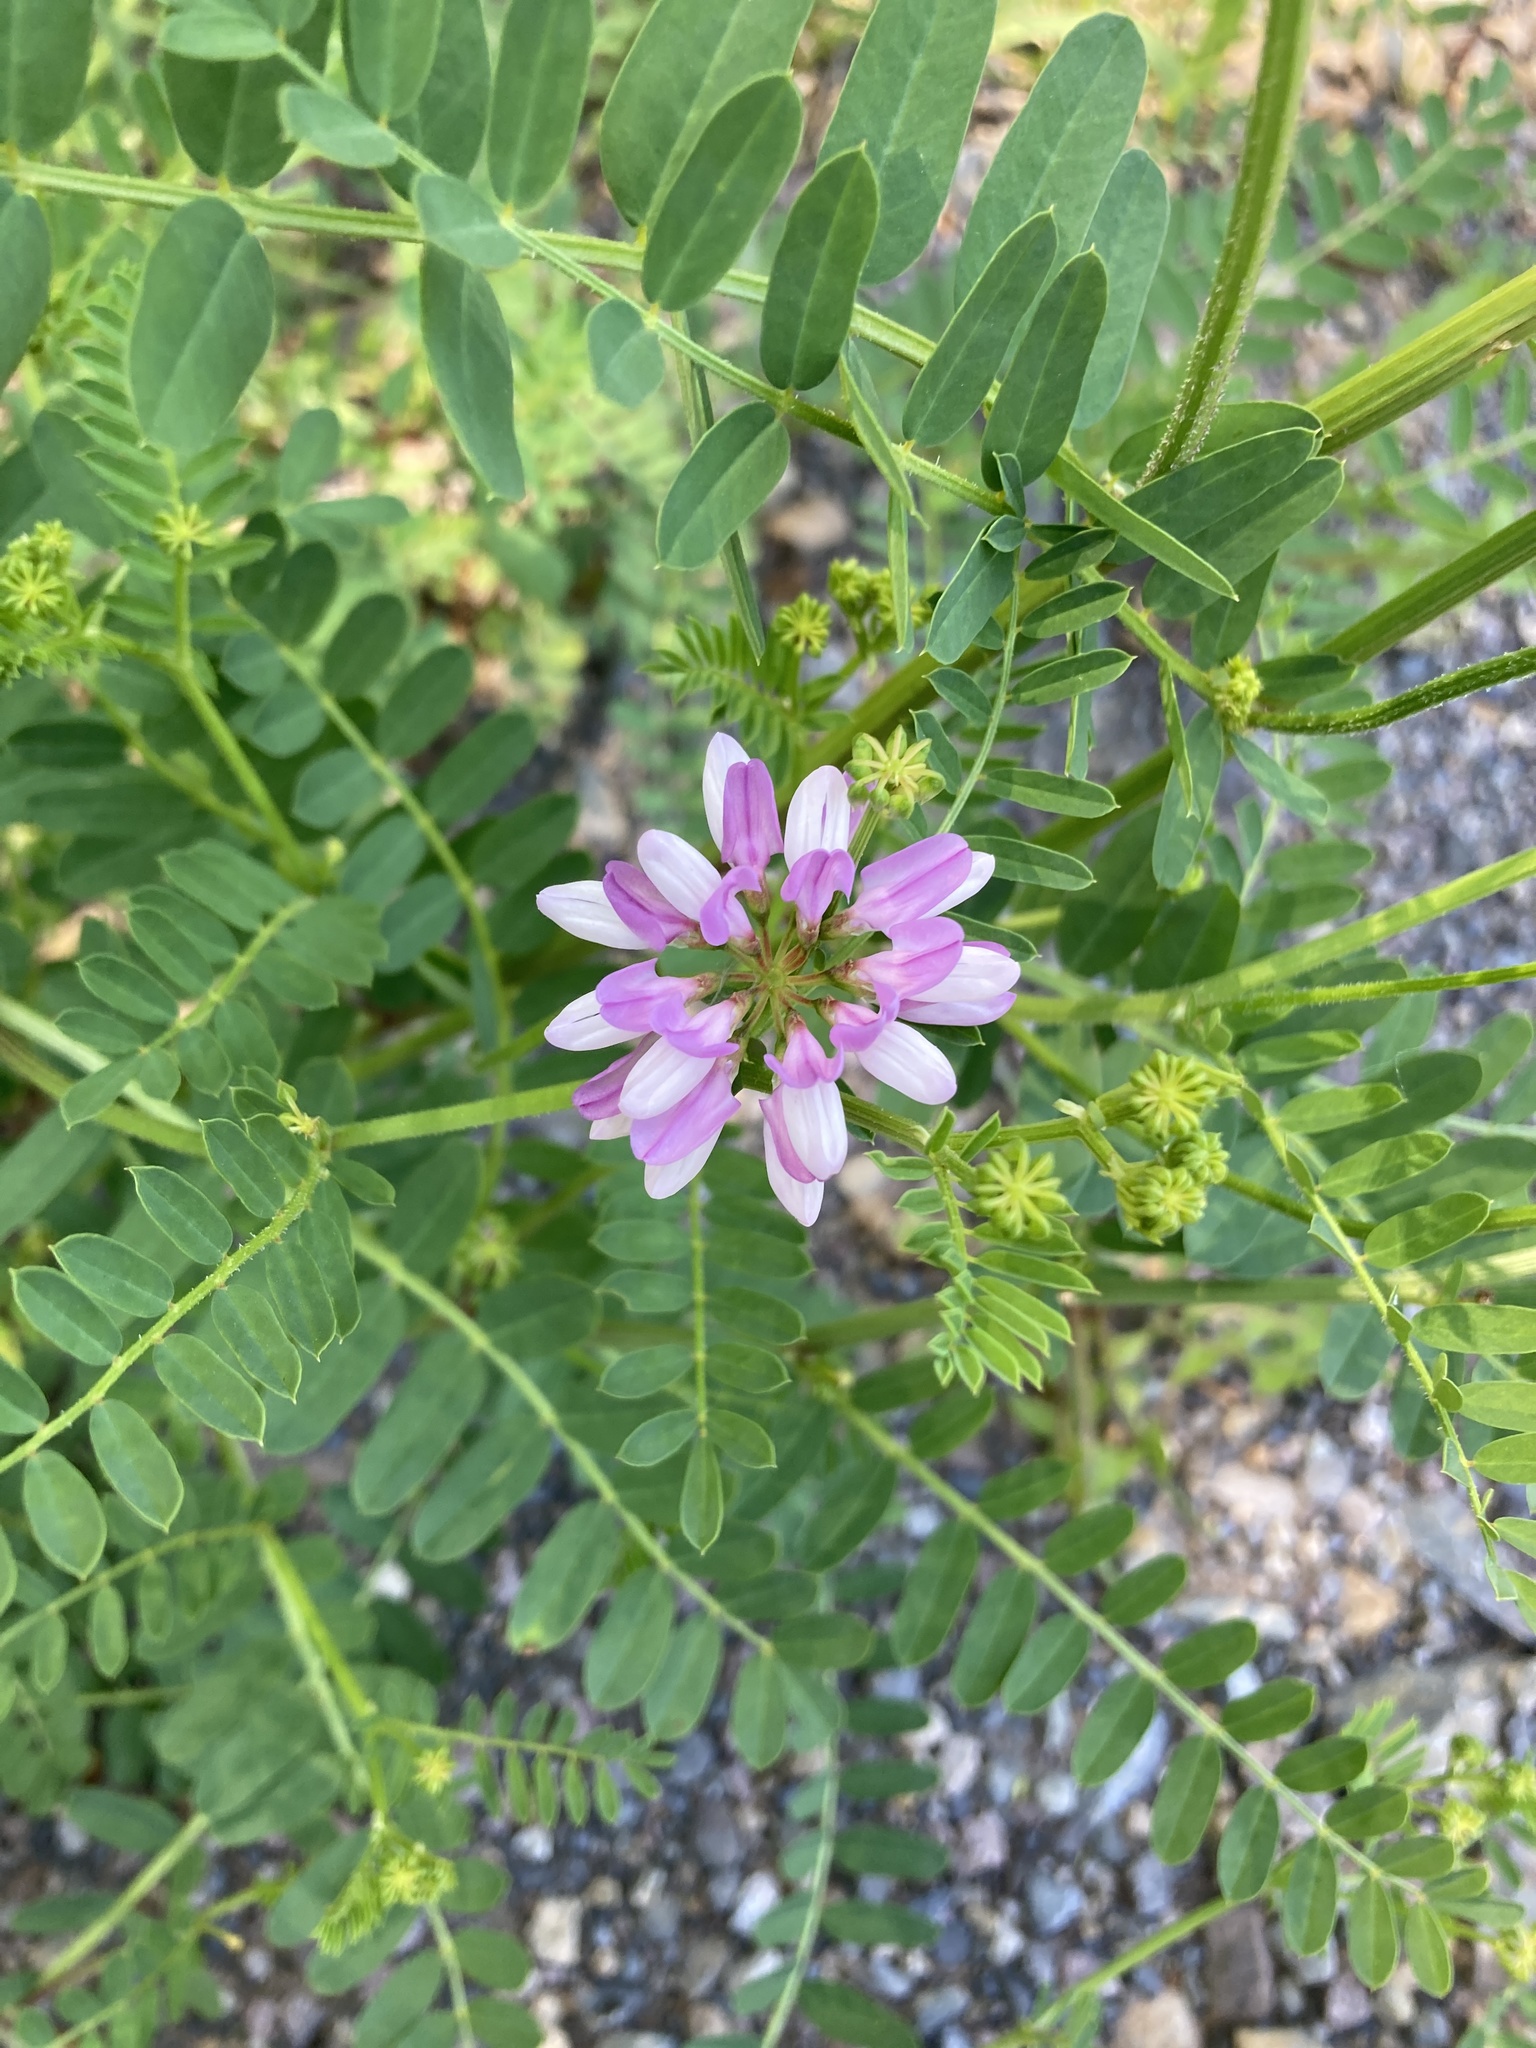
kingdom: Plantae
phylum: Tracheophyta
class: Magnoliopsida
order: Fabales
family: Fabaceae
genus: Coronilla
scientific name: Coronilla varia
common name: Crownvetch
